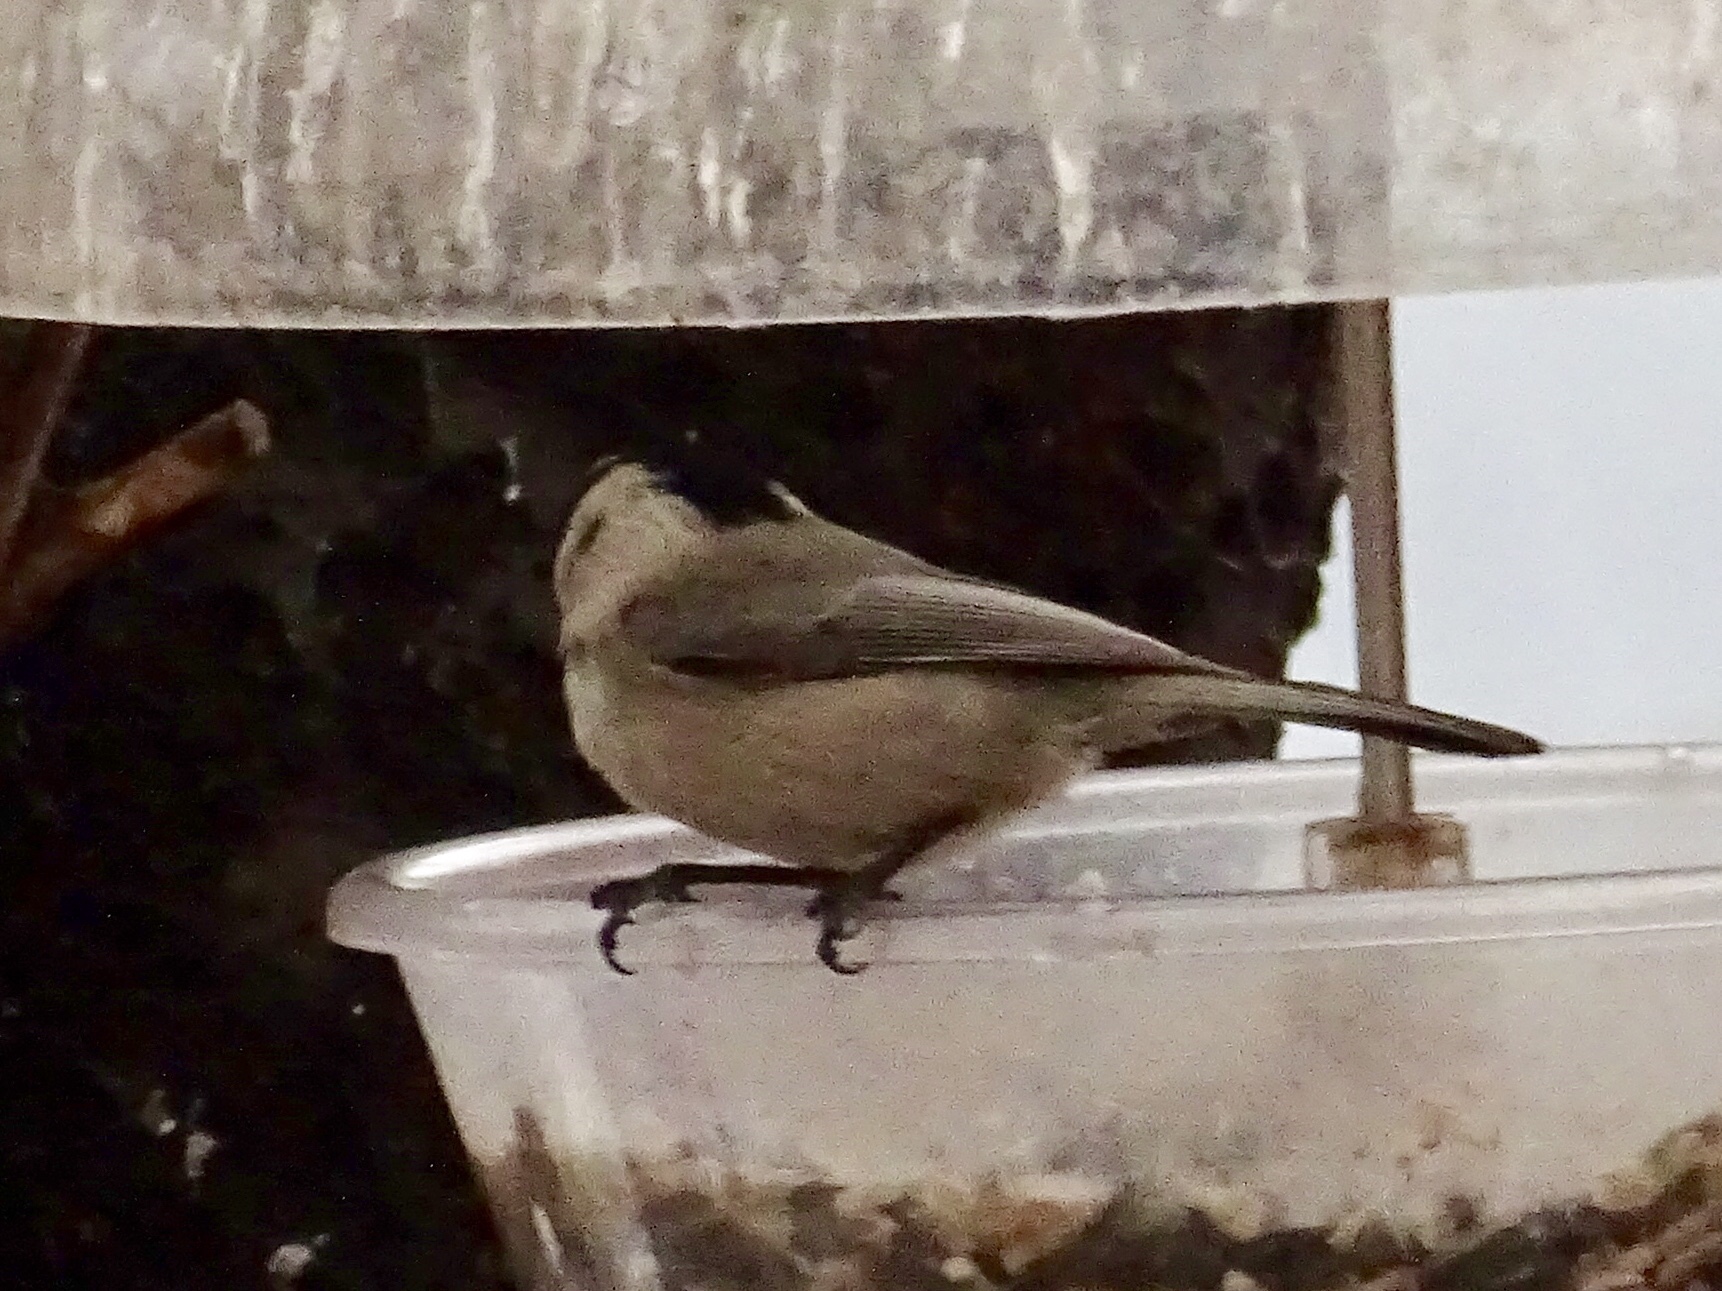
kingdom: Animalia
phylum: Chordata
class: Aves
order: Passeriformes
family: Paridae
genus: Poecile
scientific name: Poecile gambeli
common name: Mountain chickadee
